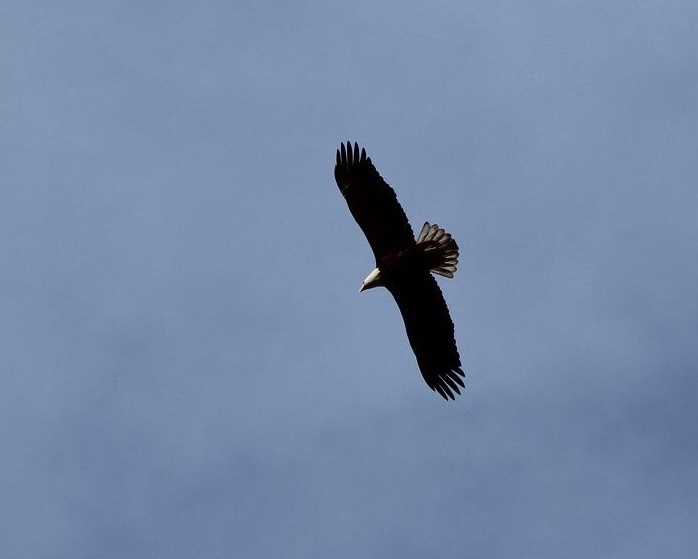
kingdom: Animalia
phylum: Chordata
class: Aves
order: Accipitriformes
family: Accipitridae
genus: Haliaeetus
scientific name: Haliaeetus leucocephalus
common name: Bald eagle
